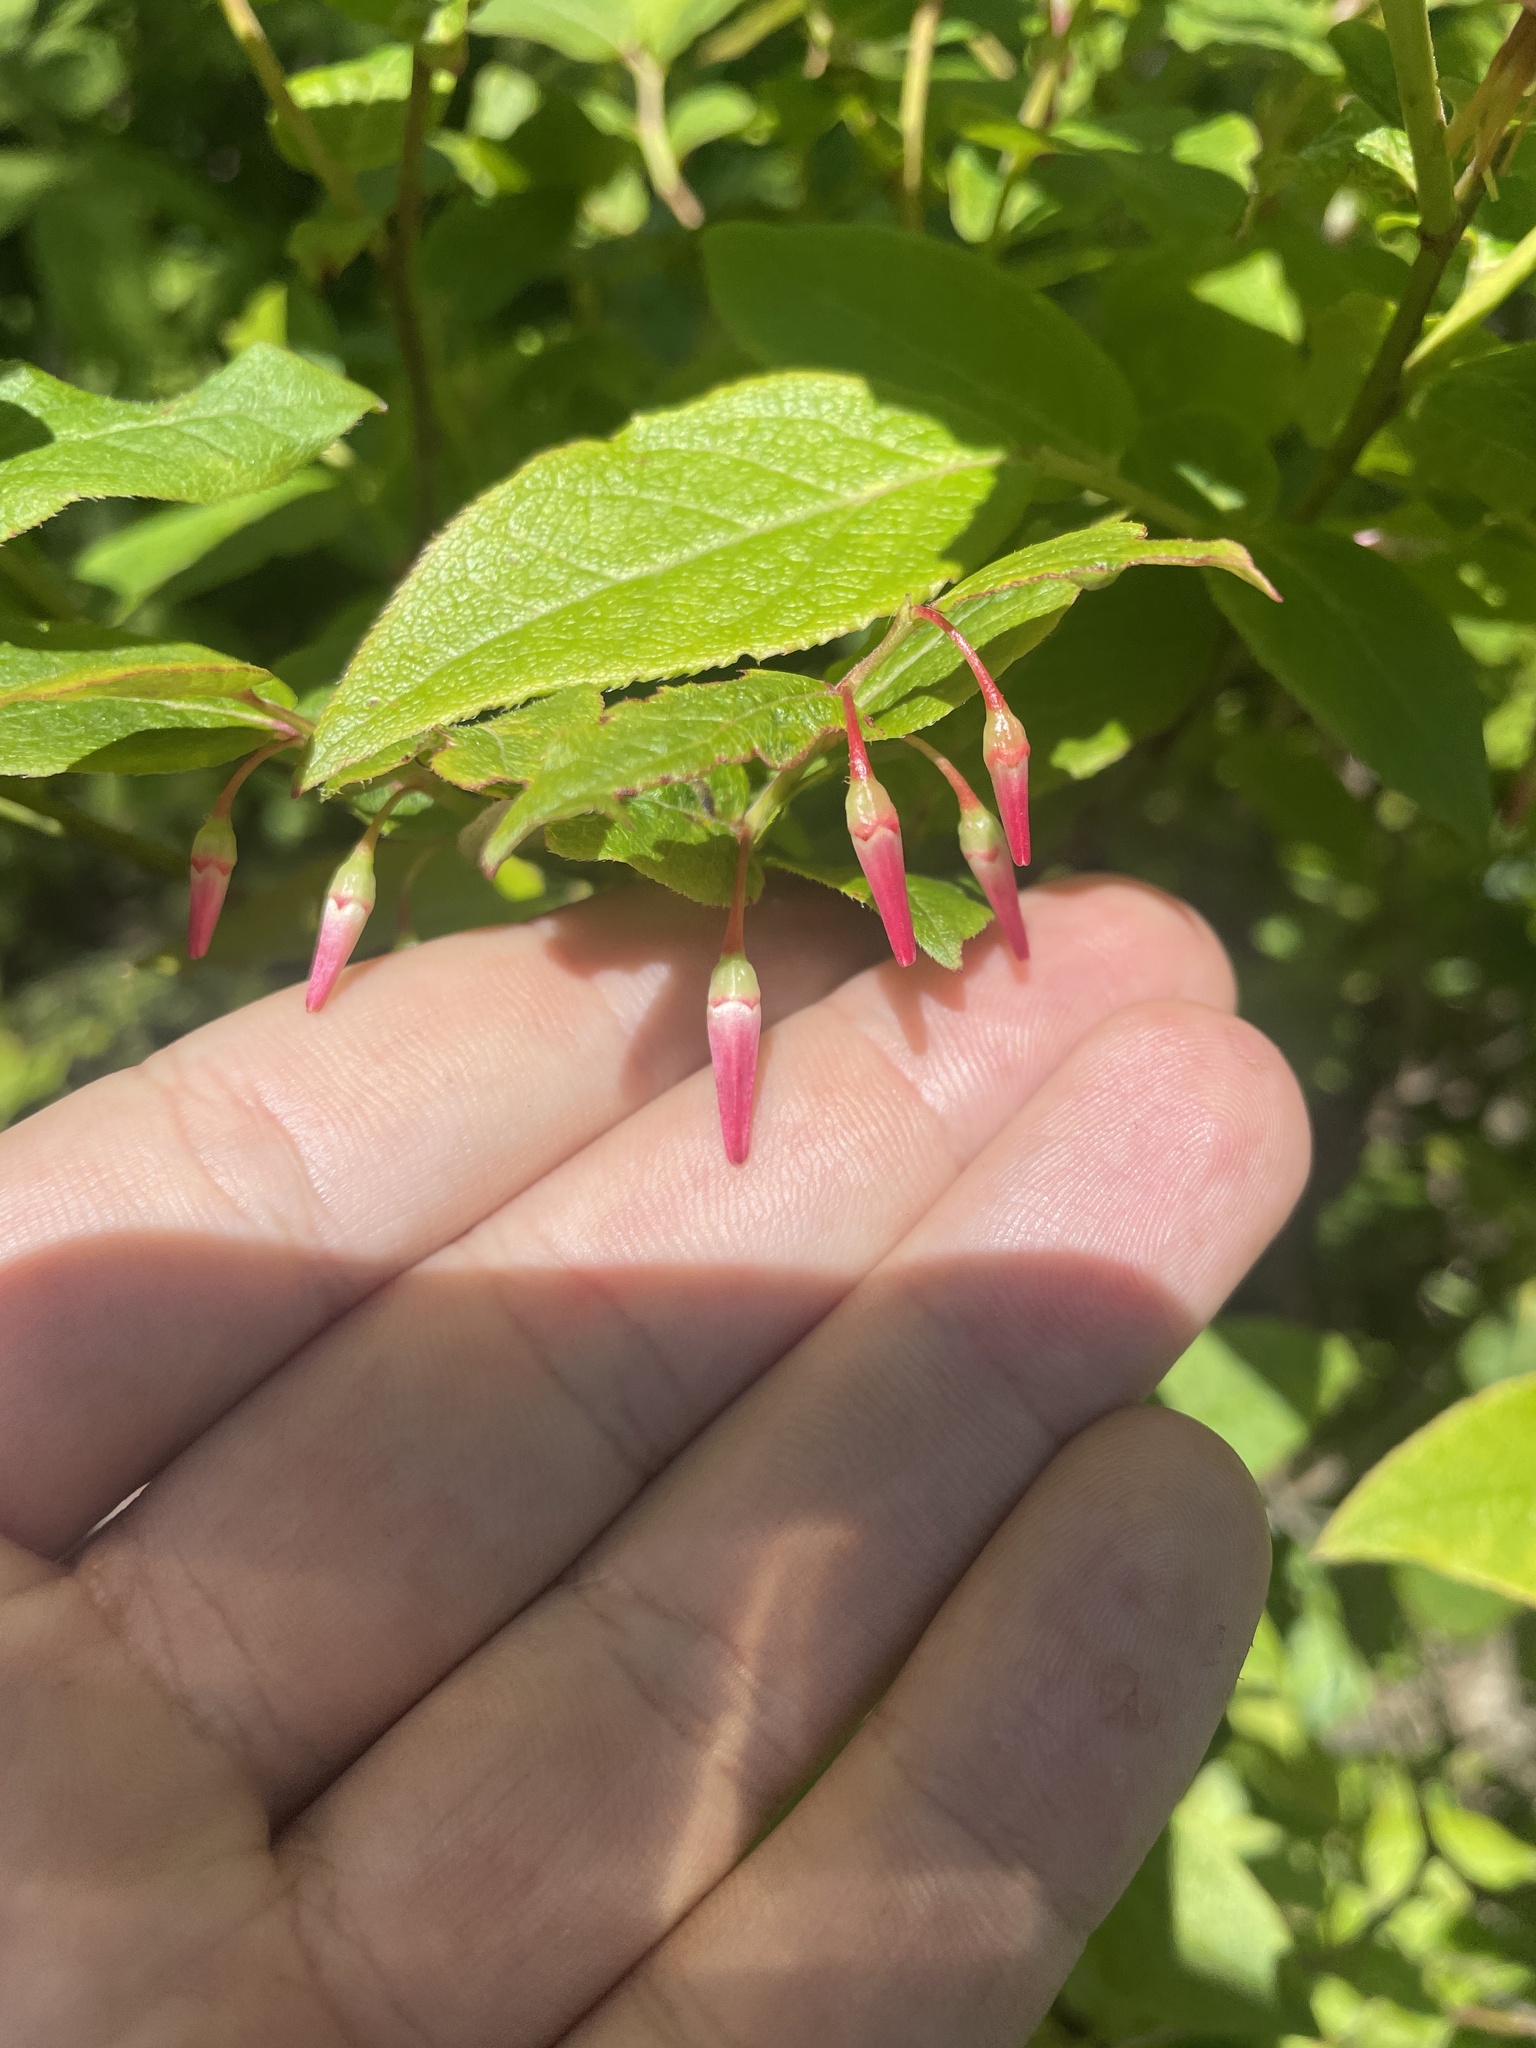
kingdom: Plantae
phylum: Tracheophyta
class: Magnoliopsida
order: Ericales
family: Ericaceae
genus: Vaccinium
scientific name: Vaccinium erythrocarpum
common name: Bearberry
